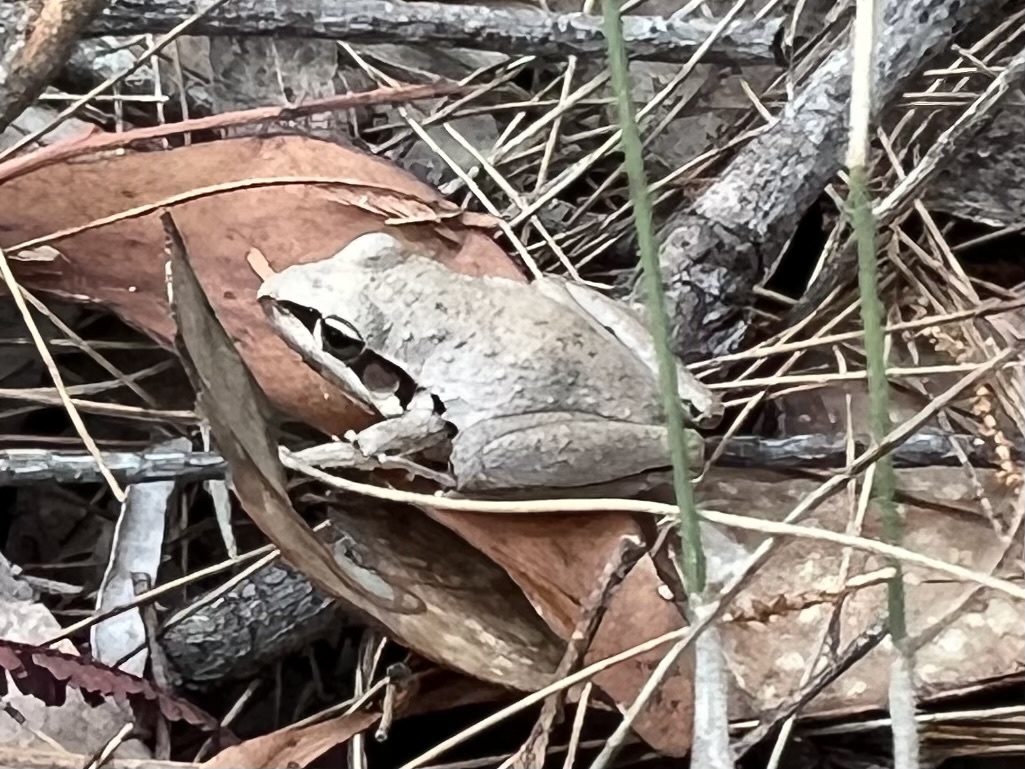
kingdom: Animalia
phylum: Chordata
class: Amphibia
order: Anura
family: Pelodryadidae
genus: Litoria
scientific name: Litoria latopalmata
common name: Broad-palmed rocket frog
